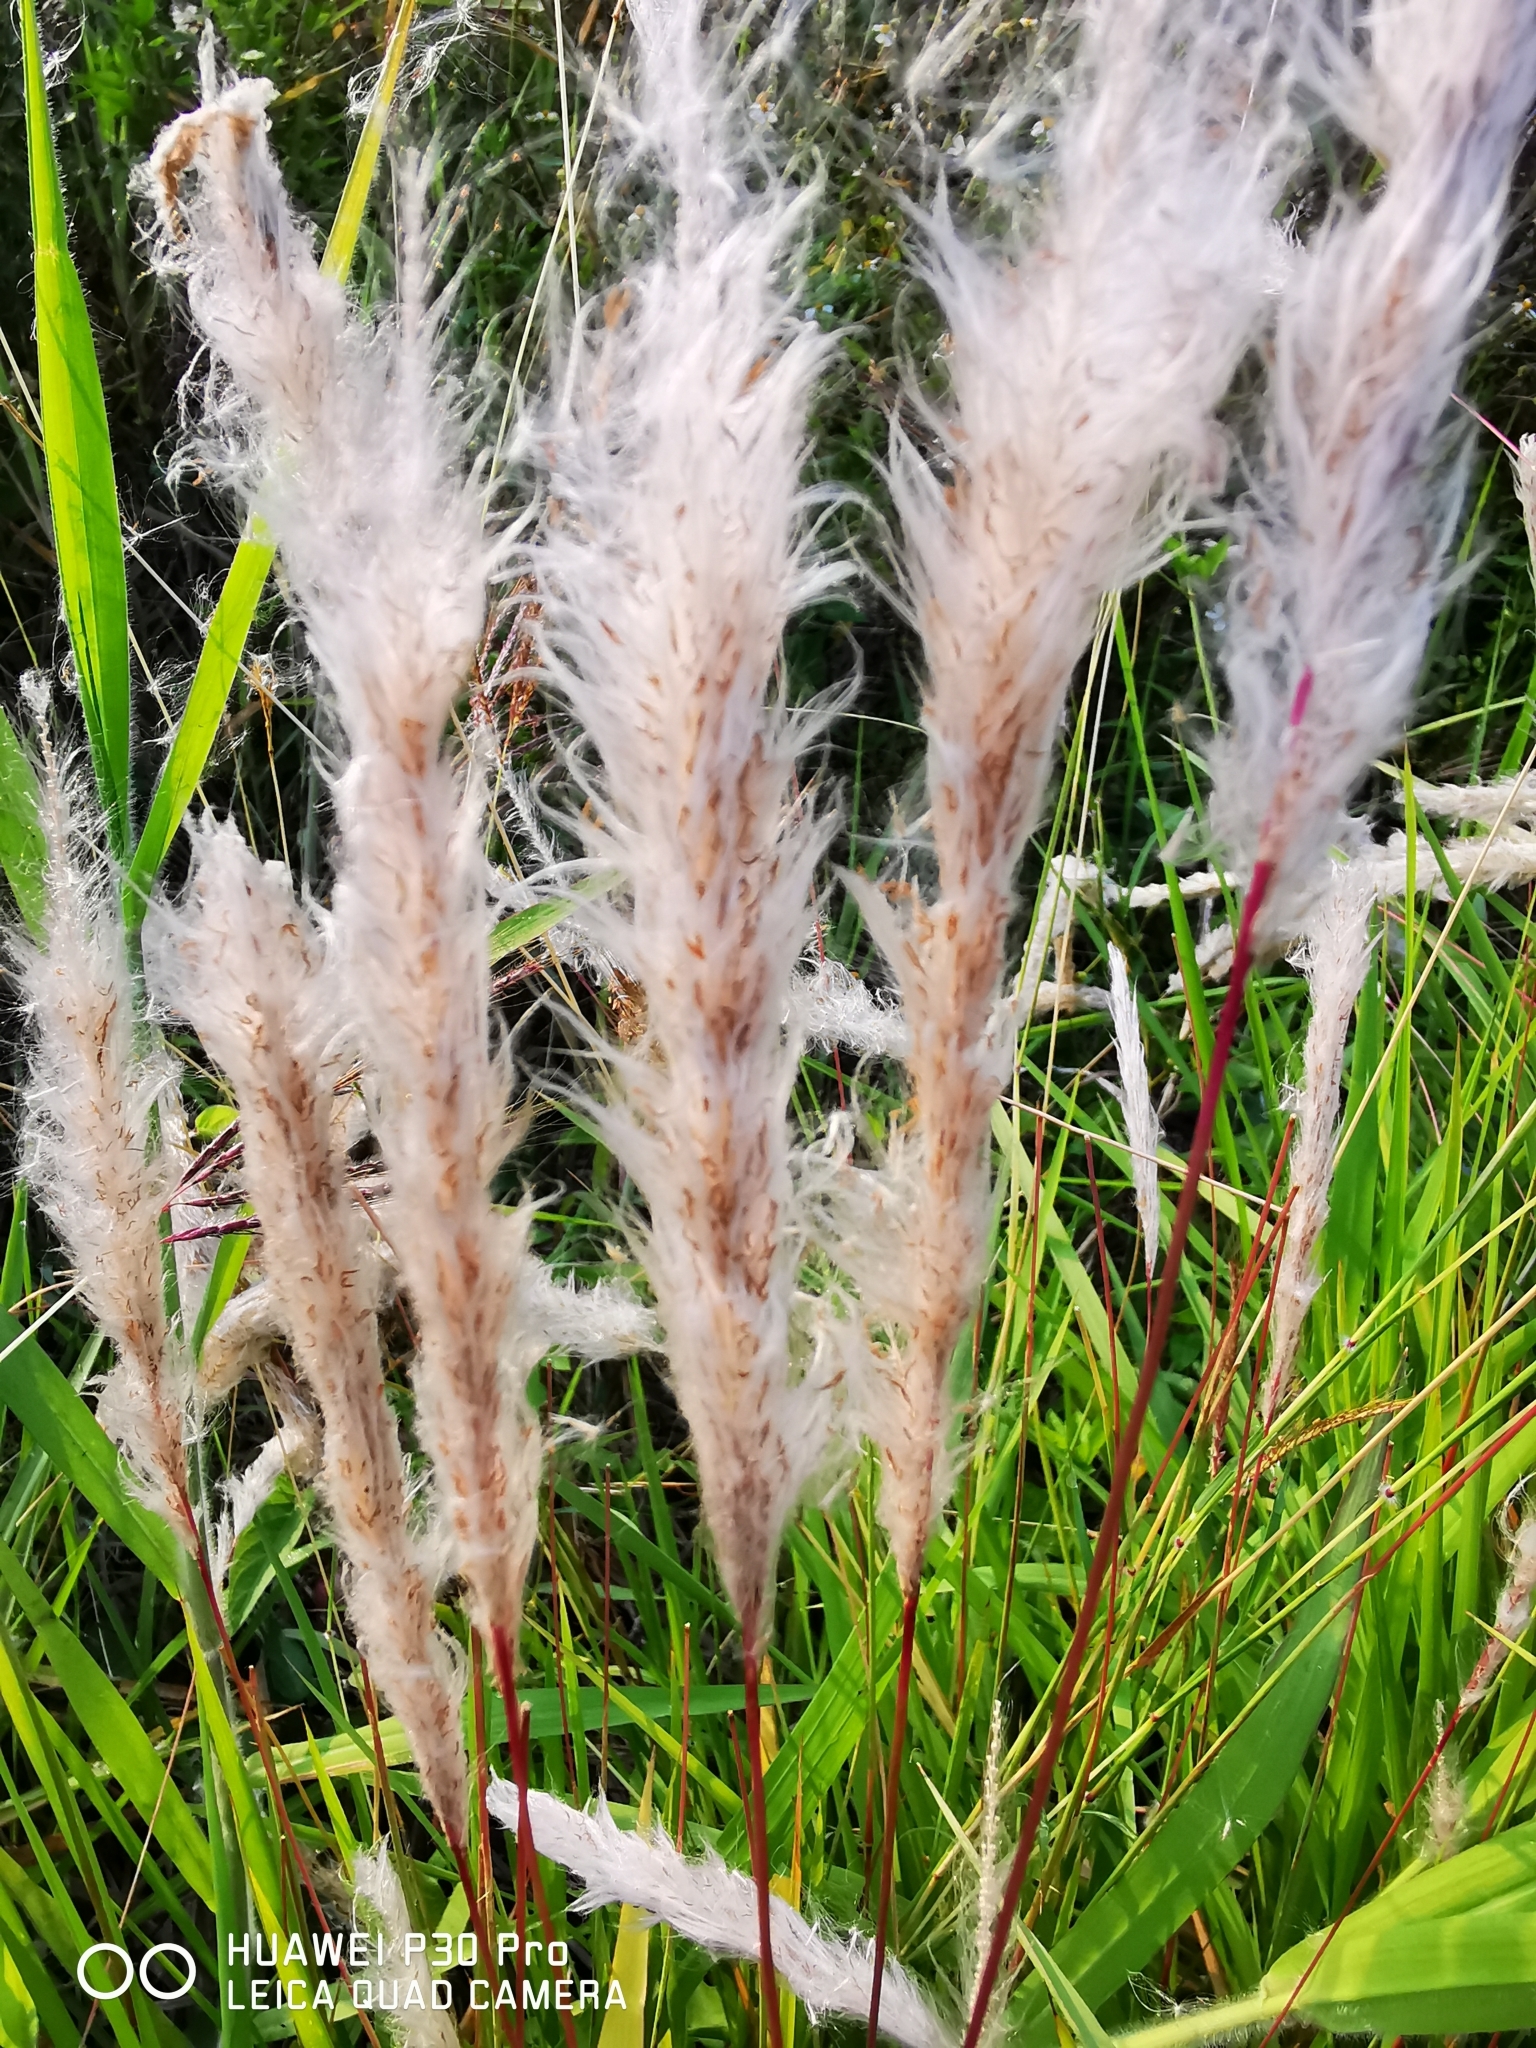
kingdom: Plantae
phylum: Tracheophyta
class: Liliopsida
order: Poales
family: Poaceae
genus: Imperata
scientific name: Imperata cylindrica
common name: Cogongrass
